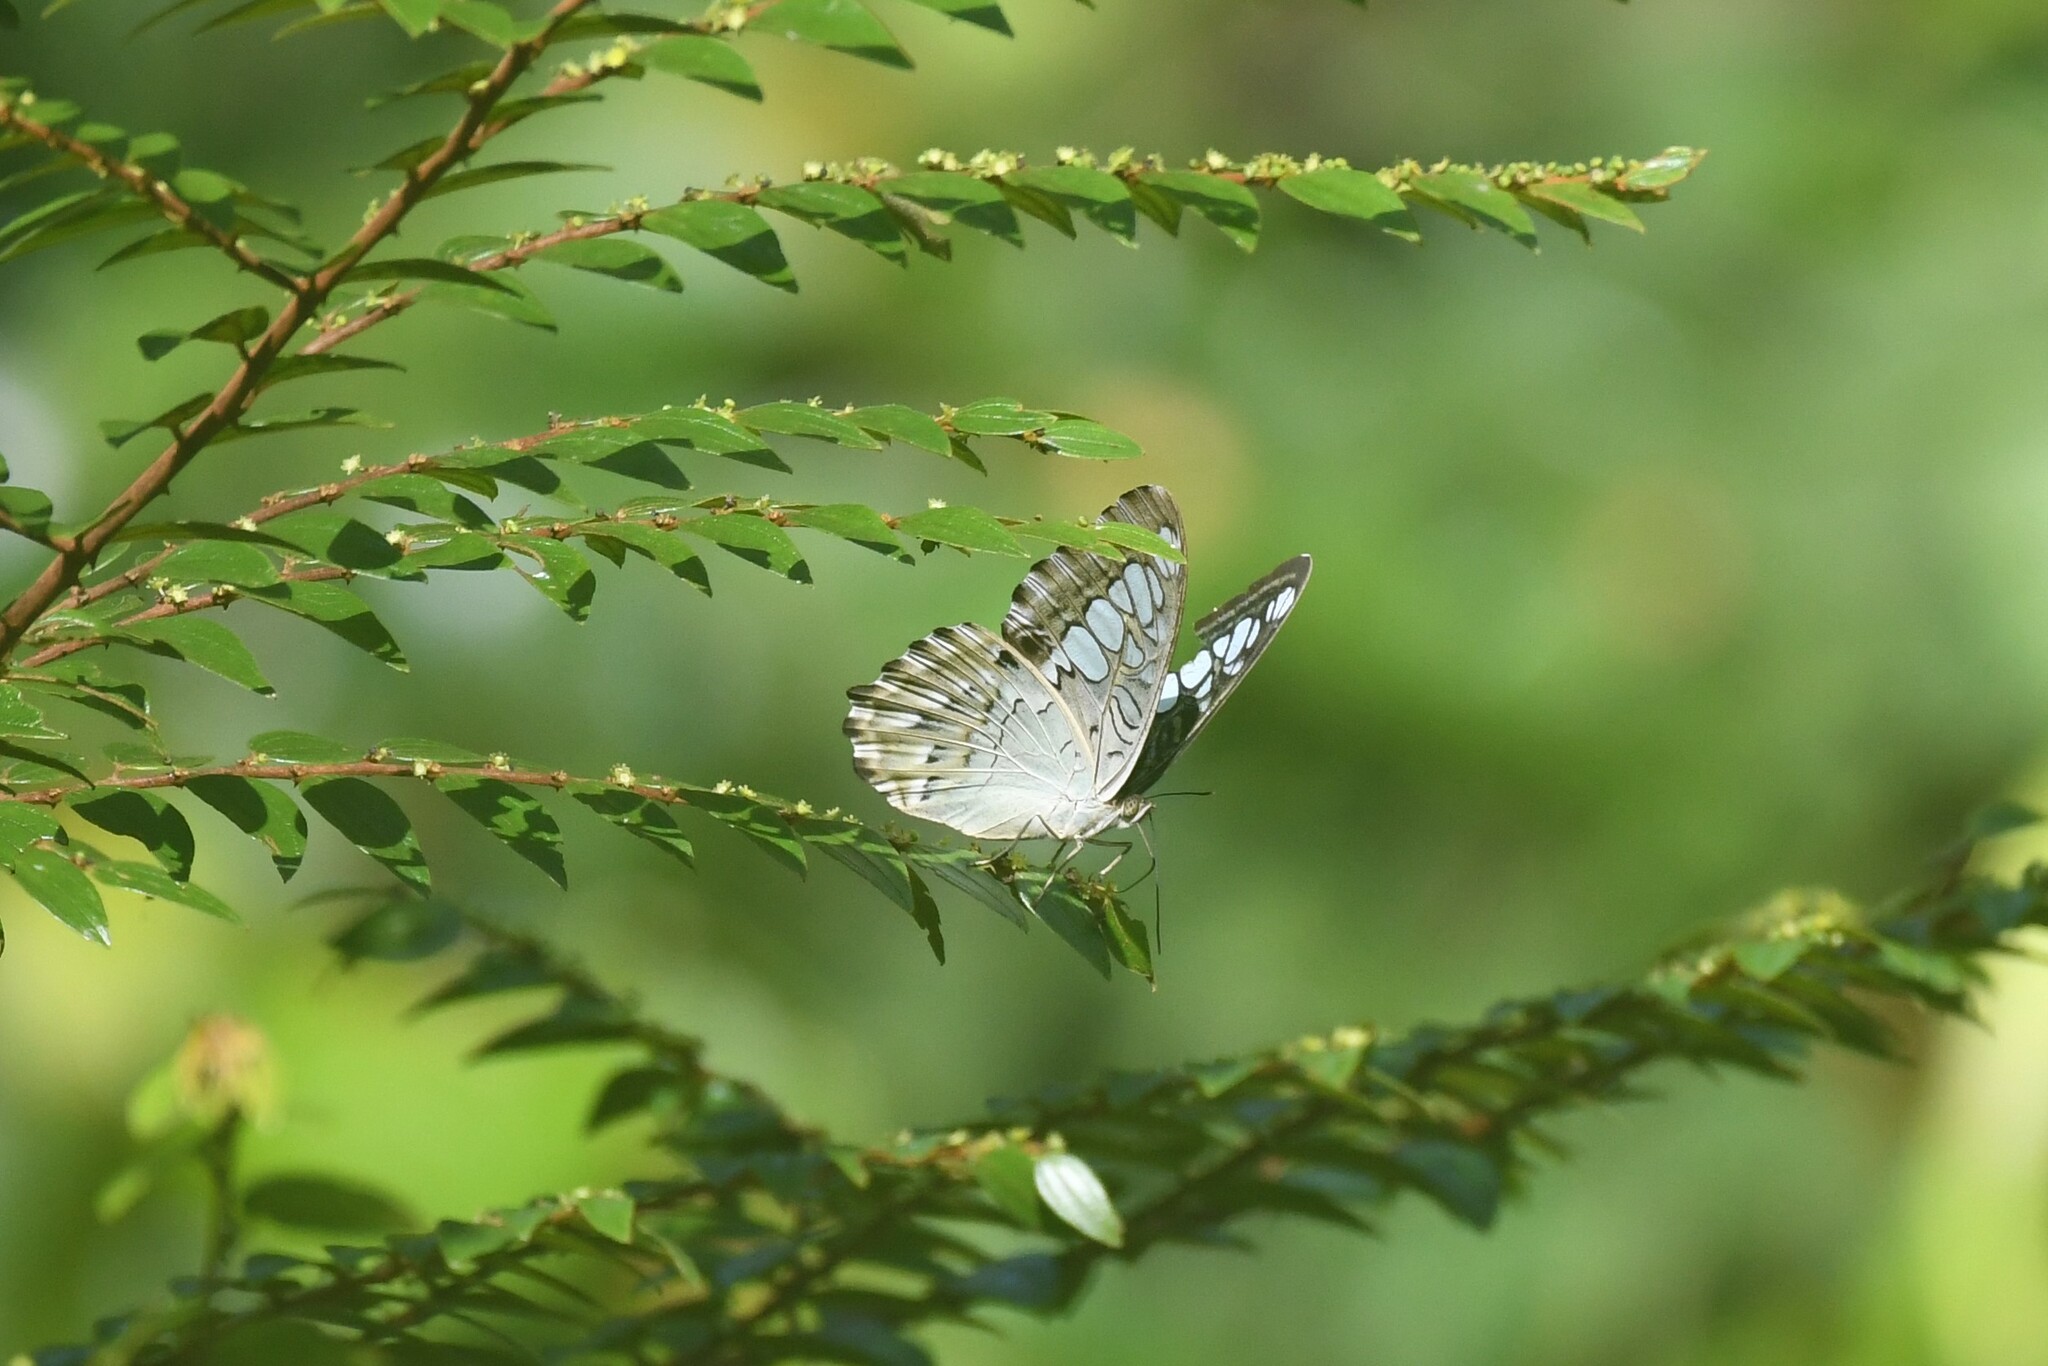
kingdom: Animalia
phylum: Arthropoda
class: Insecta
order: Lepidoptera
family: Nymphalidae
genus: Kallima
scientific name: Kallima sylvia
